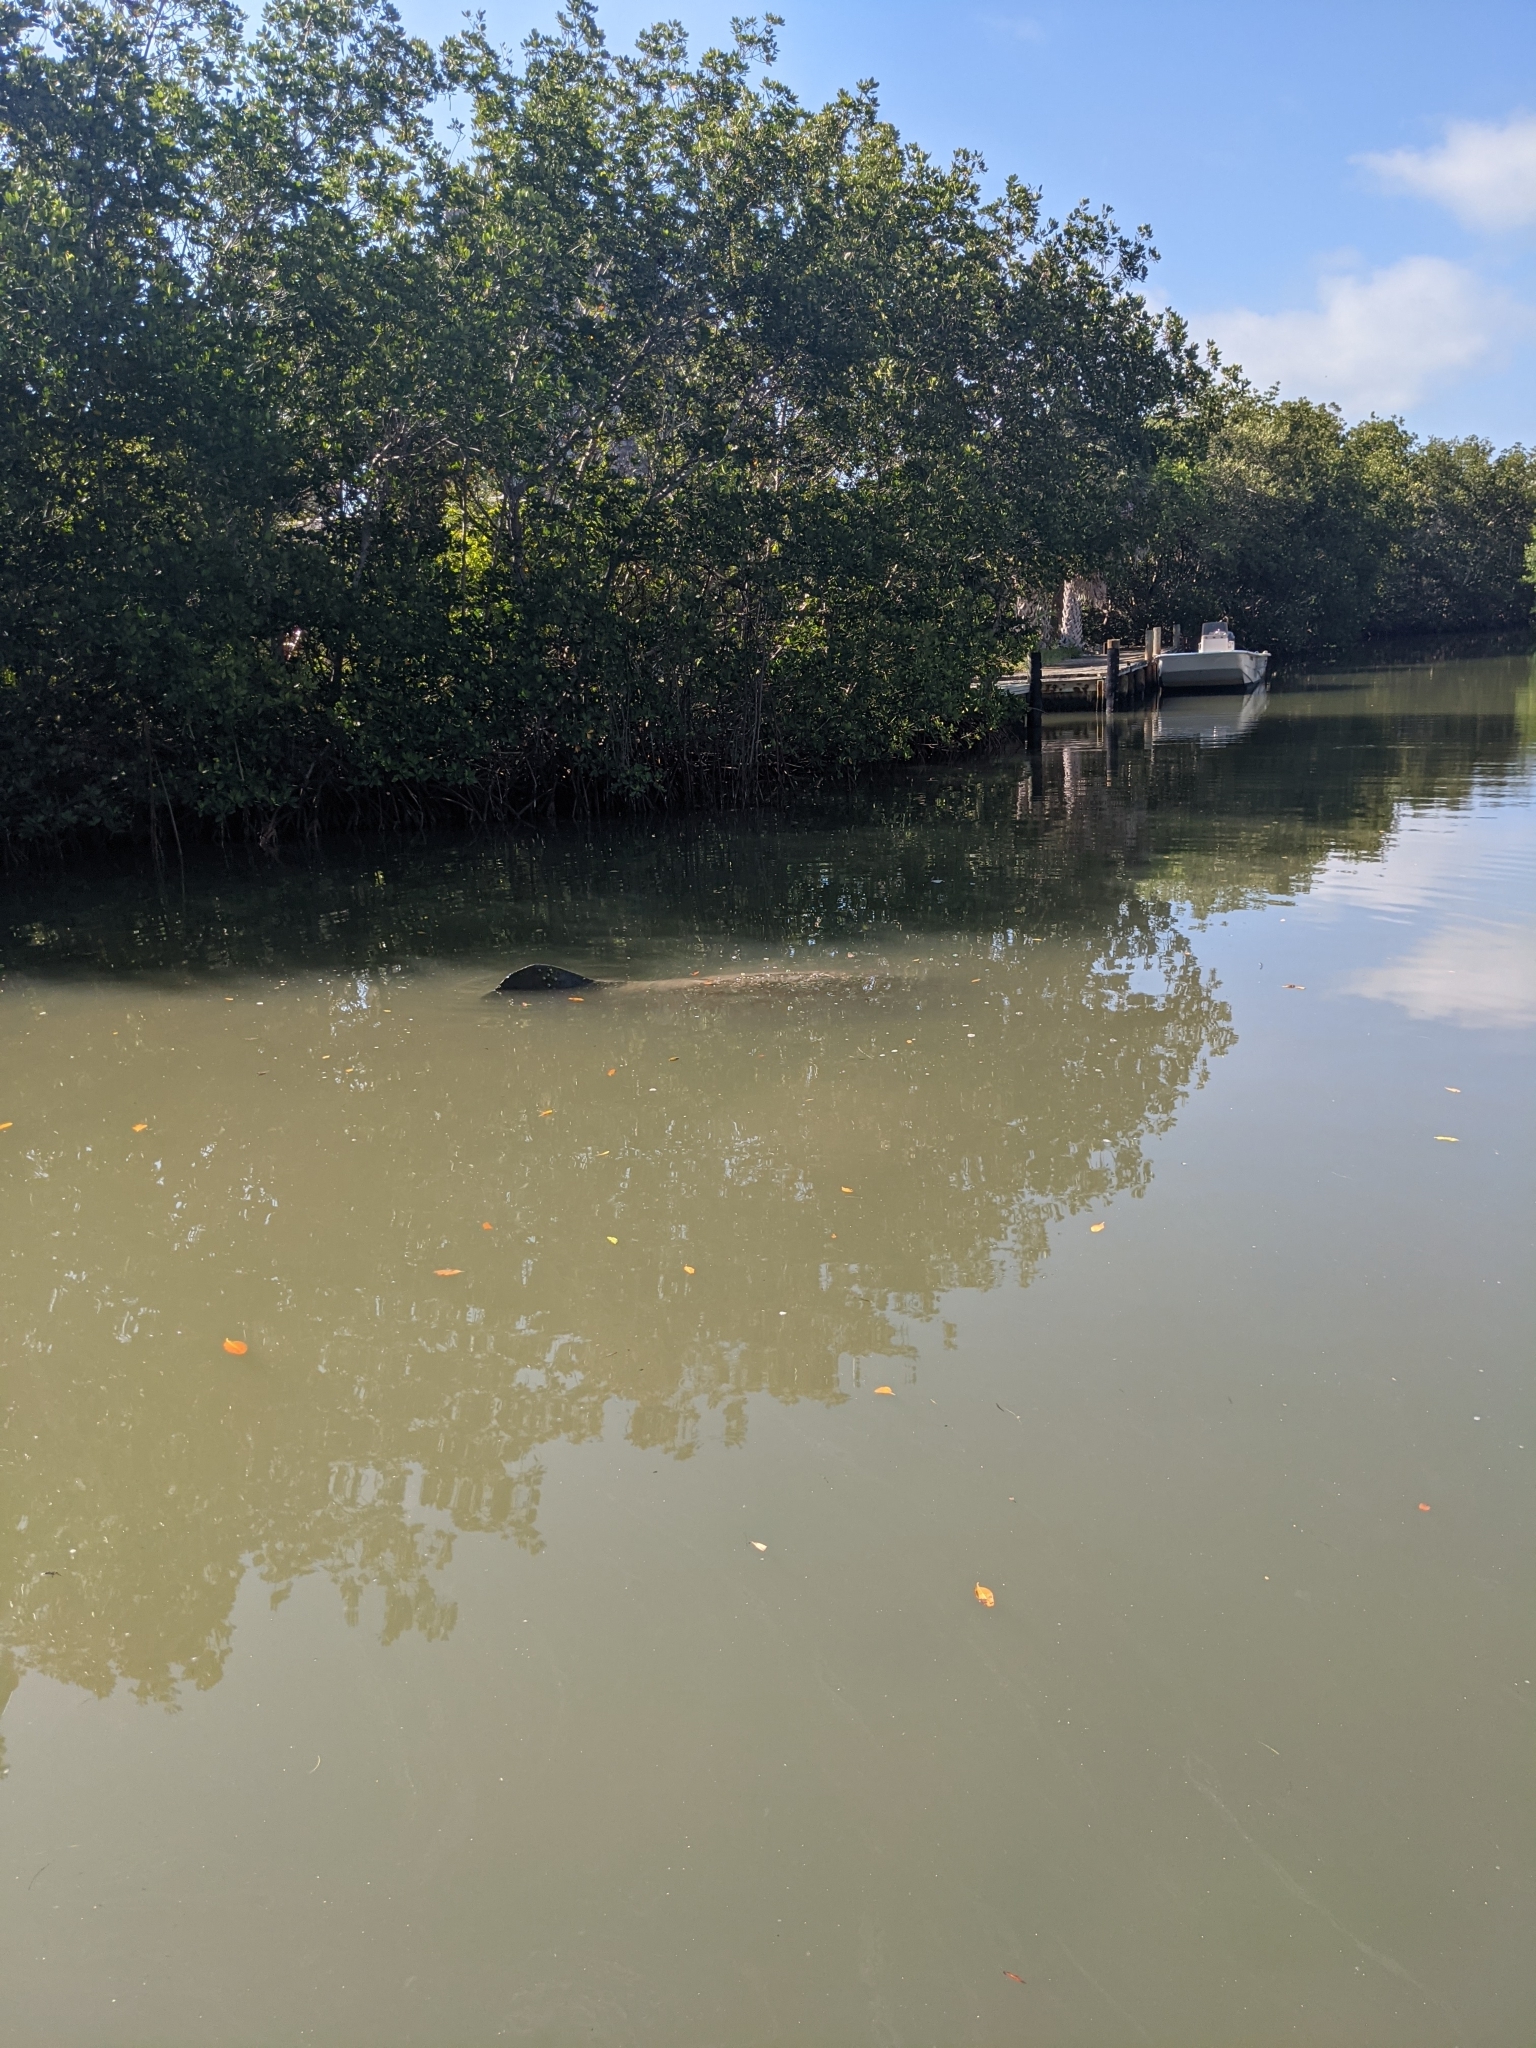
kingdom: Animalia
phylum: Chordata
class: Mammalia
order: Sirenia
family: Trichechidae
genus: Trichechus
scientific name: Trichechus manatus
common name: West indian manatee
